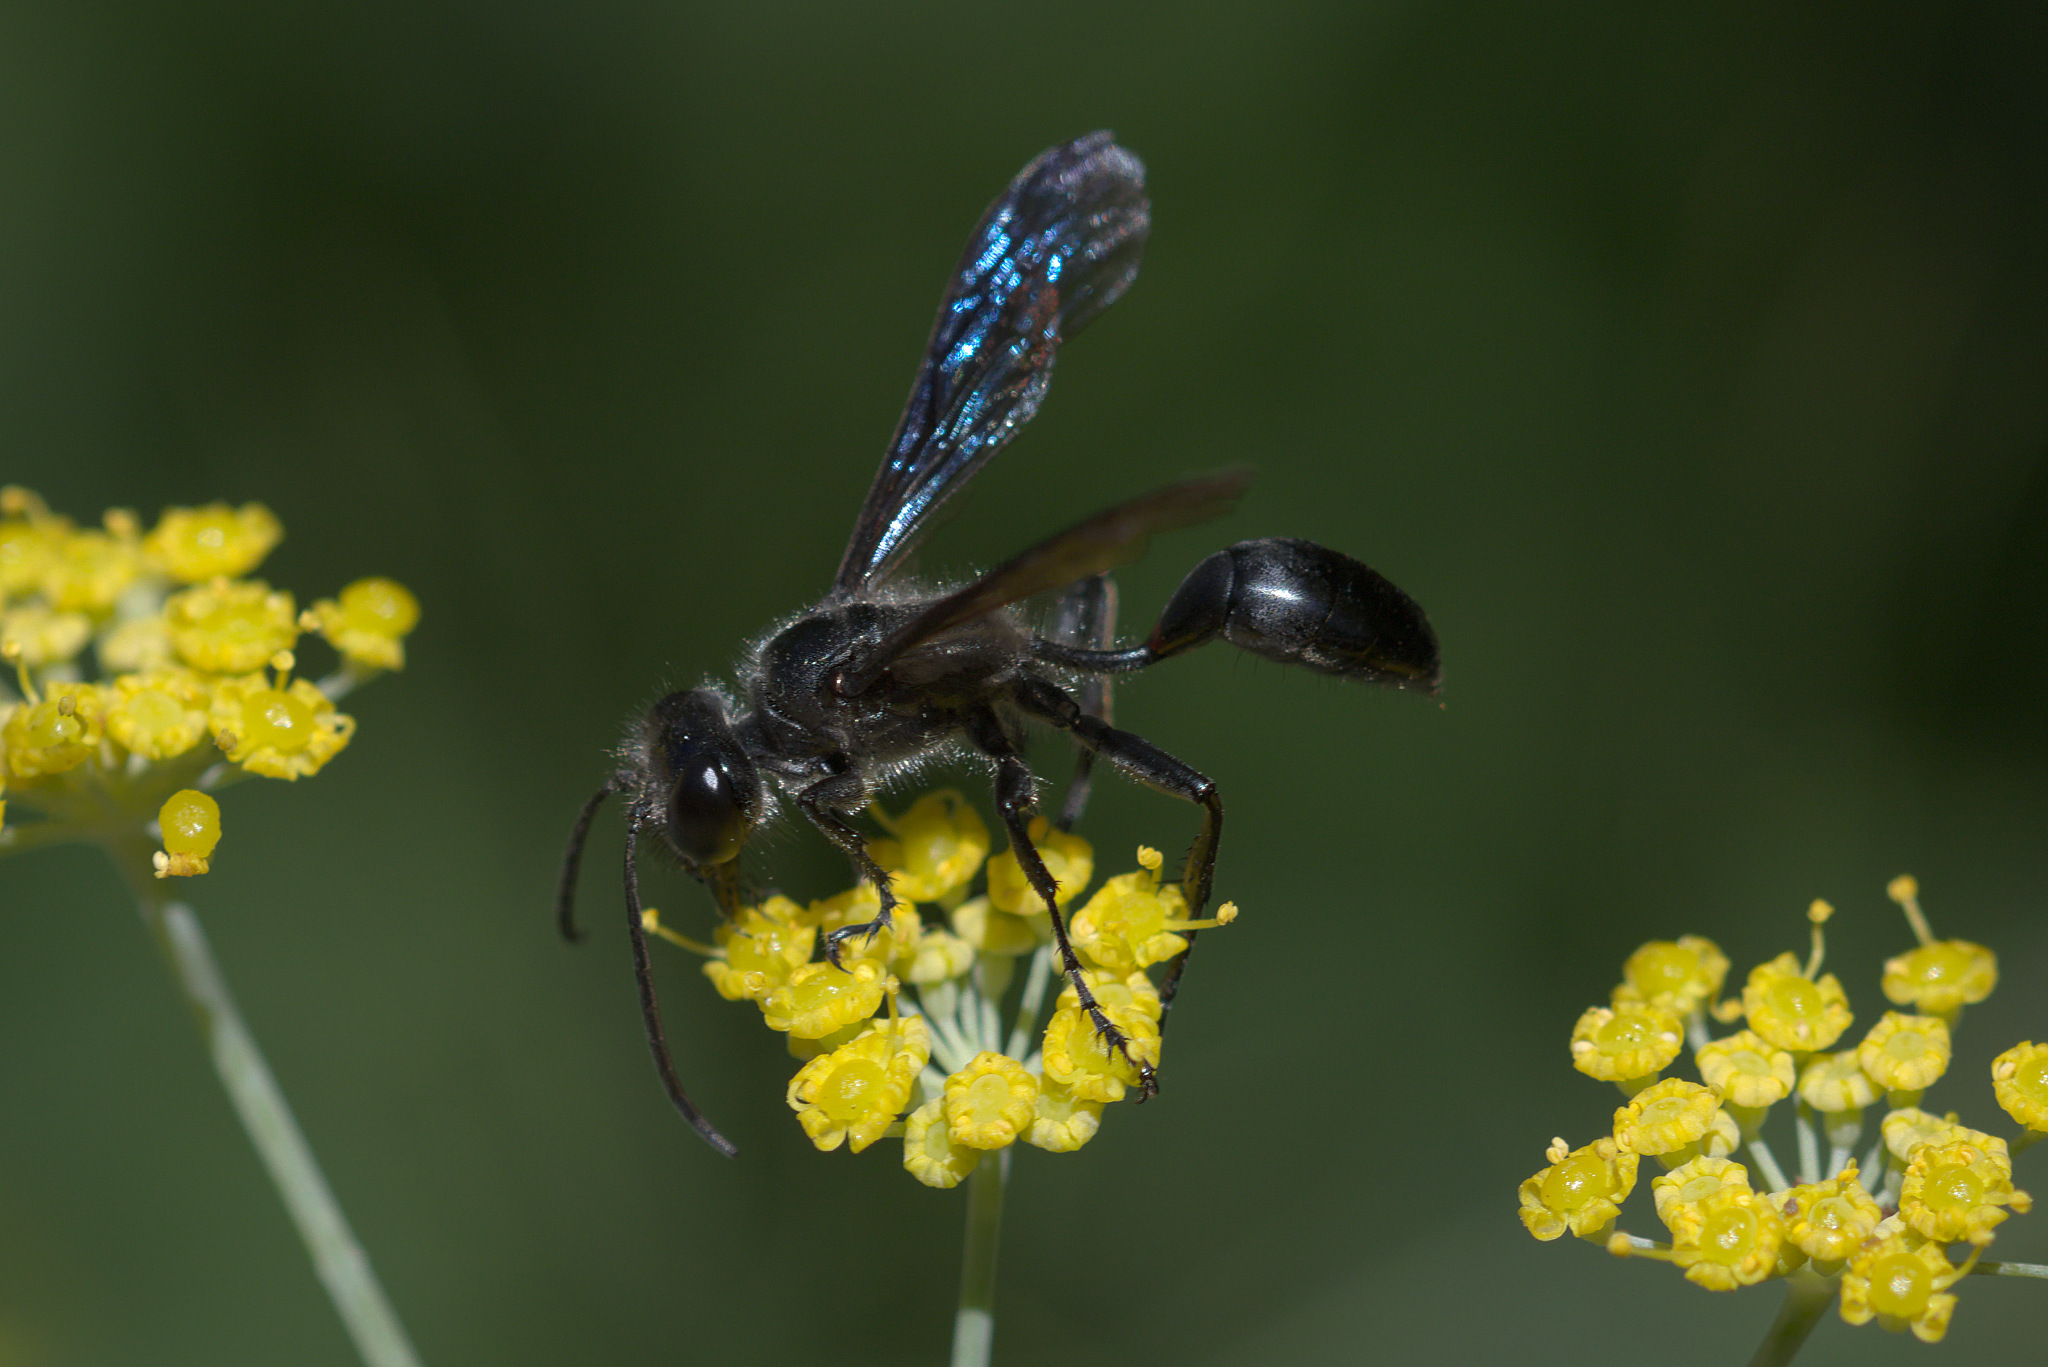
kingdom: Animalia
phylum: Arthropoda
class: Insecta
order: Hymenoptera
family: Sphecidae
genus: Isodontia
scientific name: Isodontia mexicana
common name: Mud dauber
